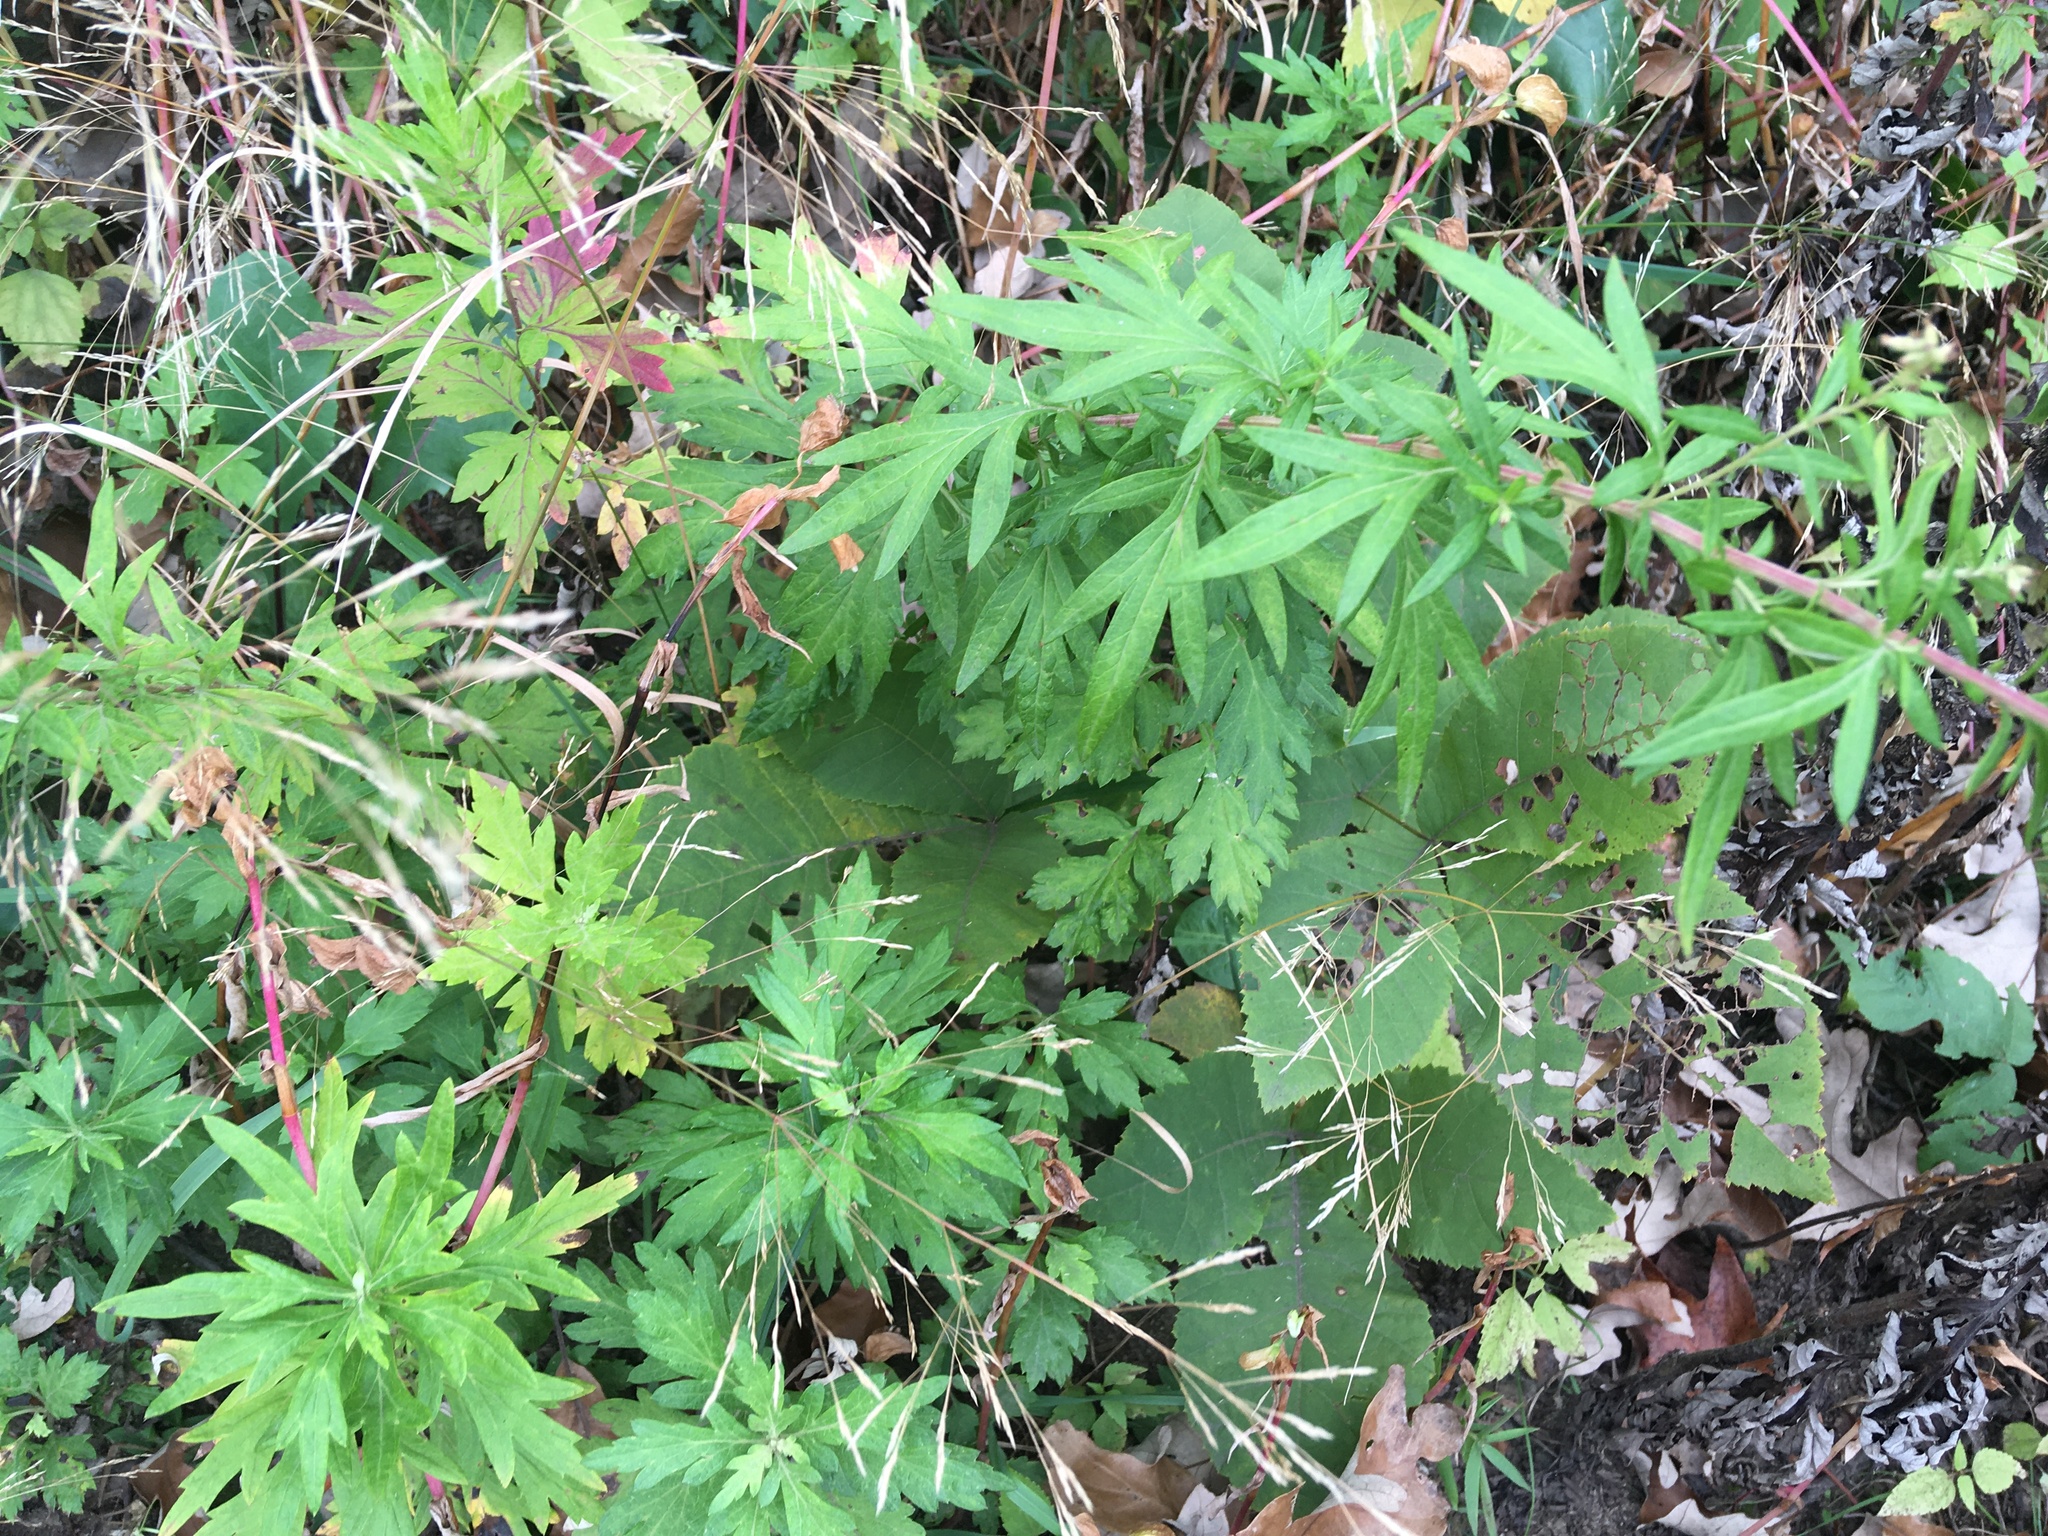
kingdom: Plantae
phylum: Tracheophyta
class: Magnoliopsida
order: Asterales
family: Asteraceae
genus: Artemisia
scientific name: Artemisia vulgaris
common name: Mugwort
